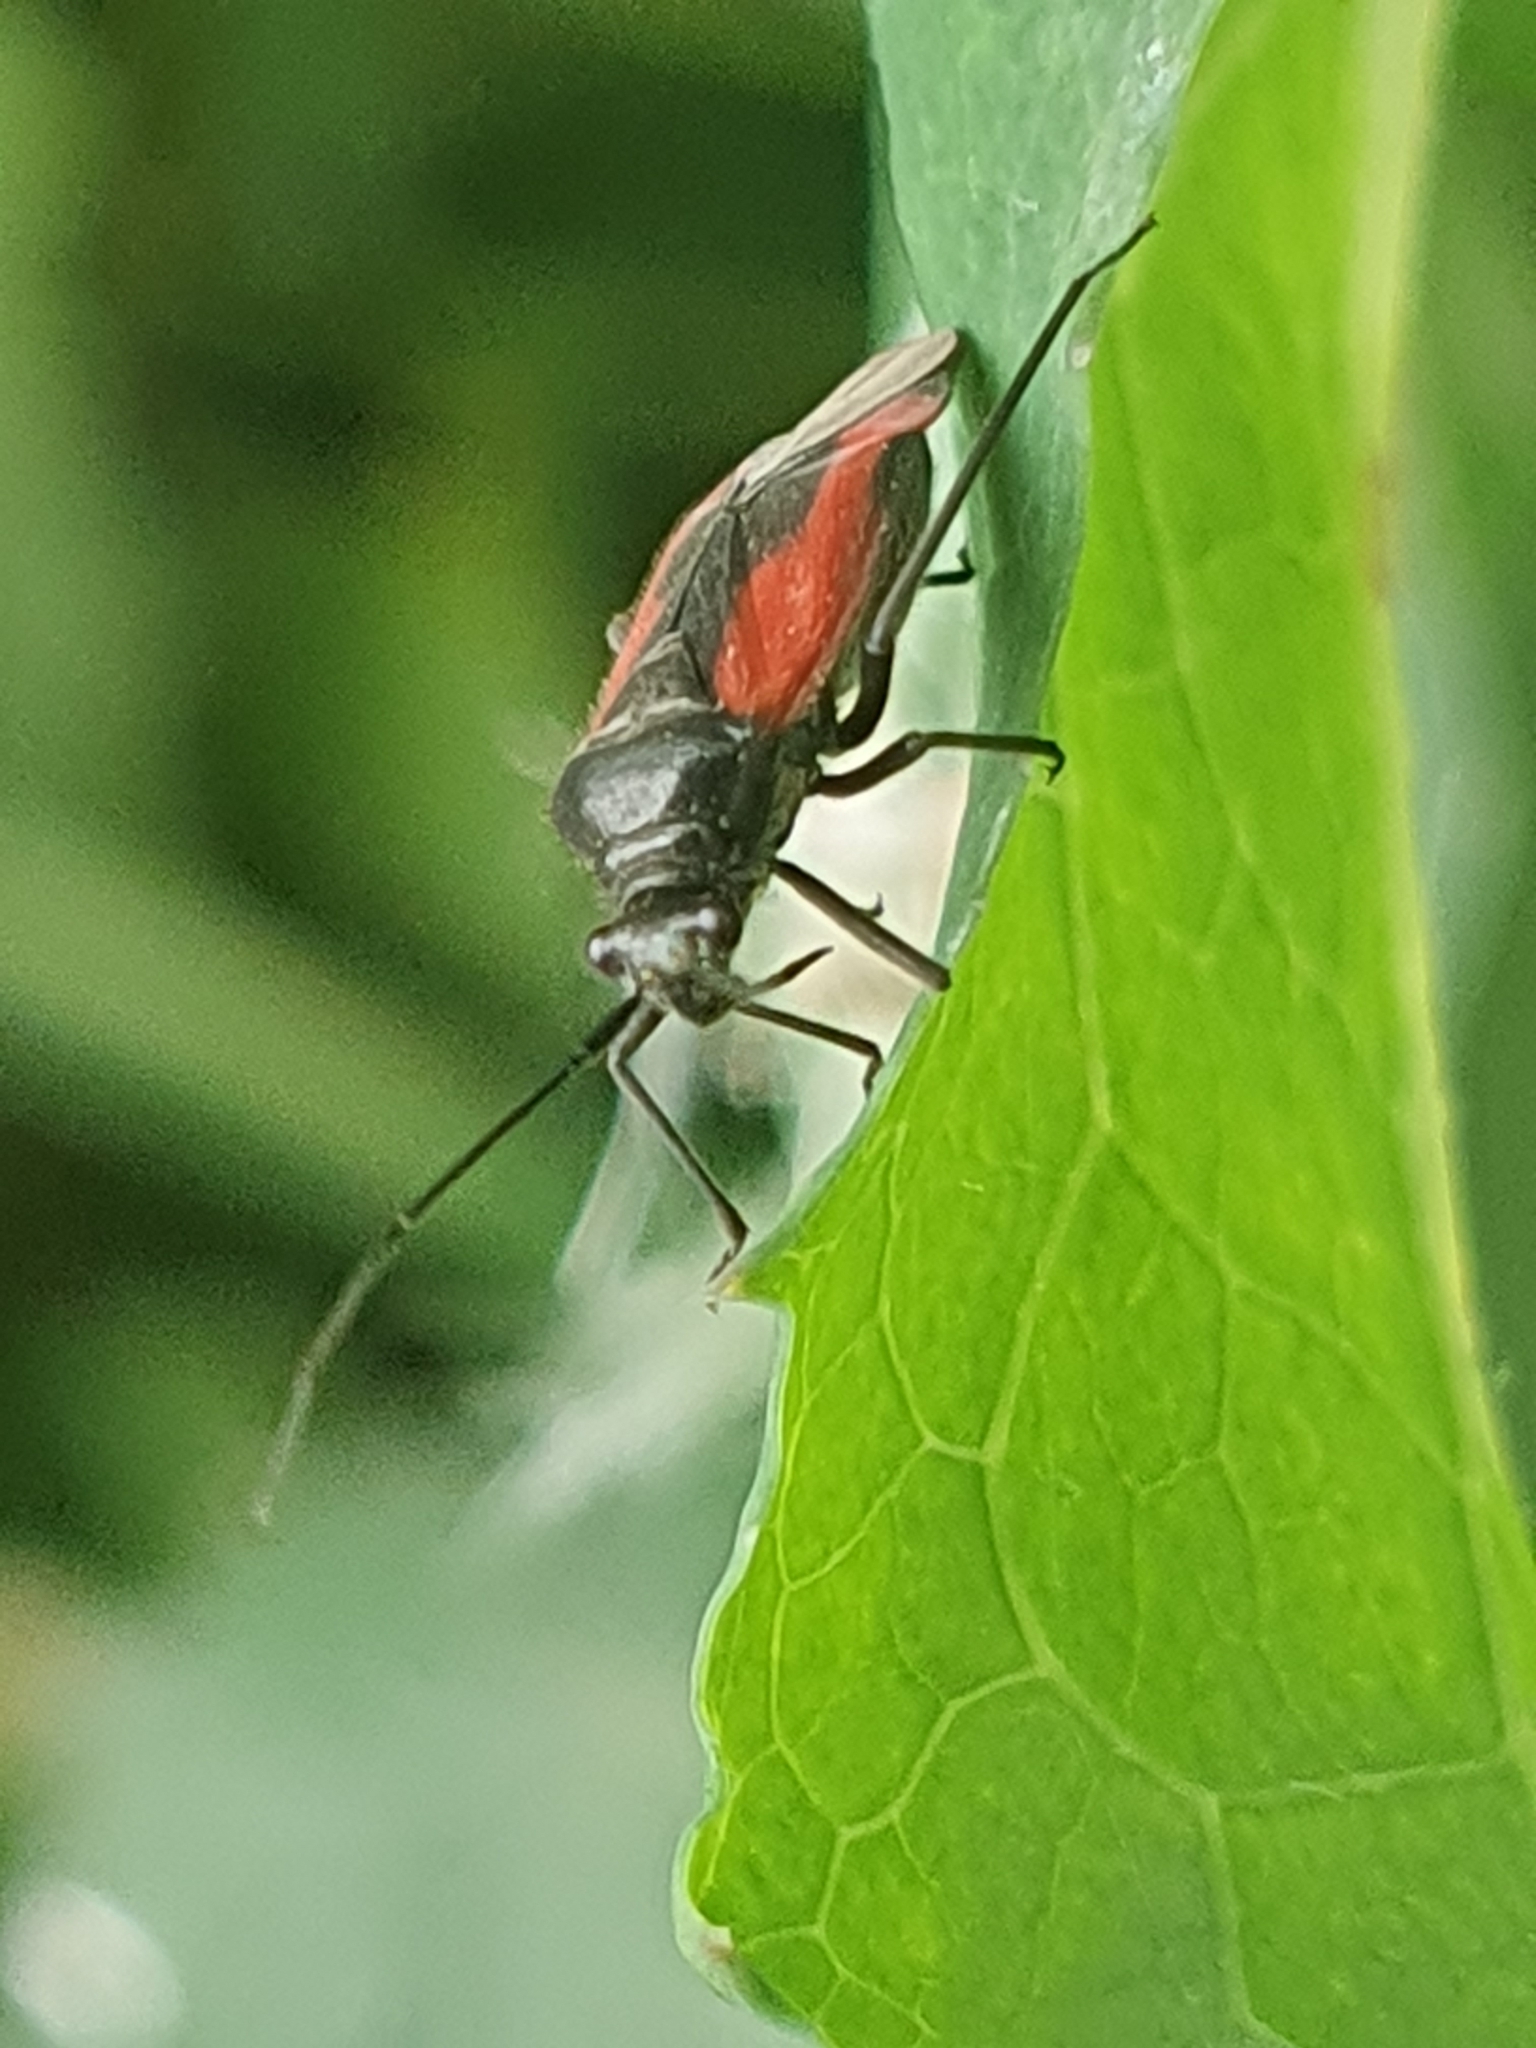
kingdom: Animalia
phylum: Arthropoda
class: Insecta
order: Hemiptera
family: Miridae
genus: Dionconotus
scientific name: Dionconotus confluens
